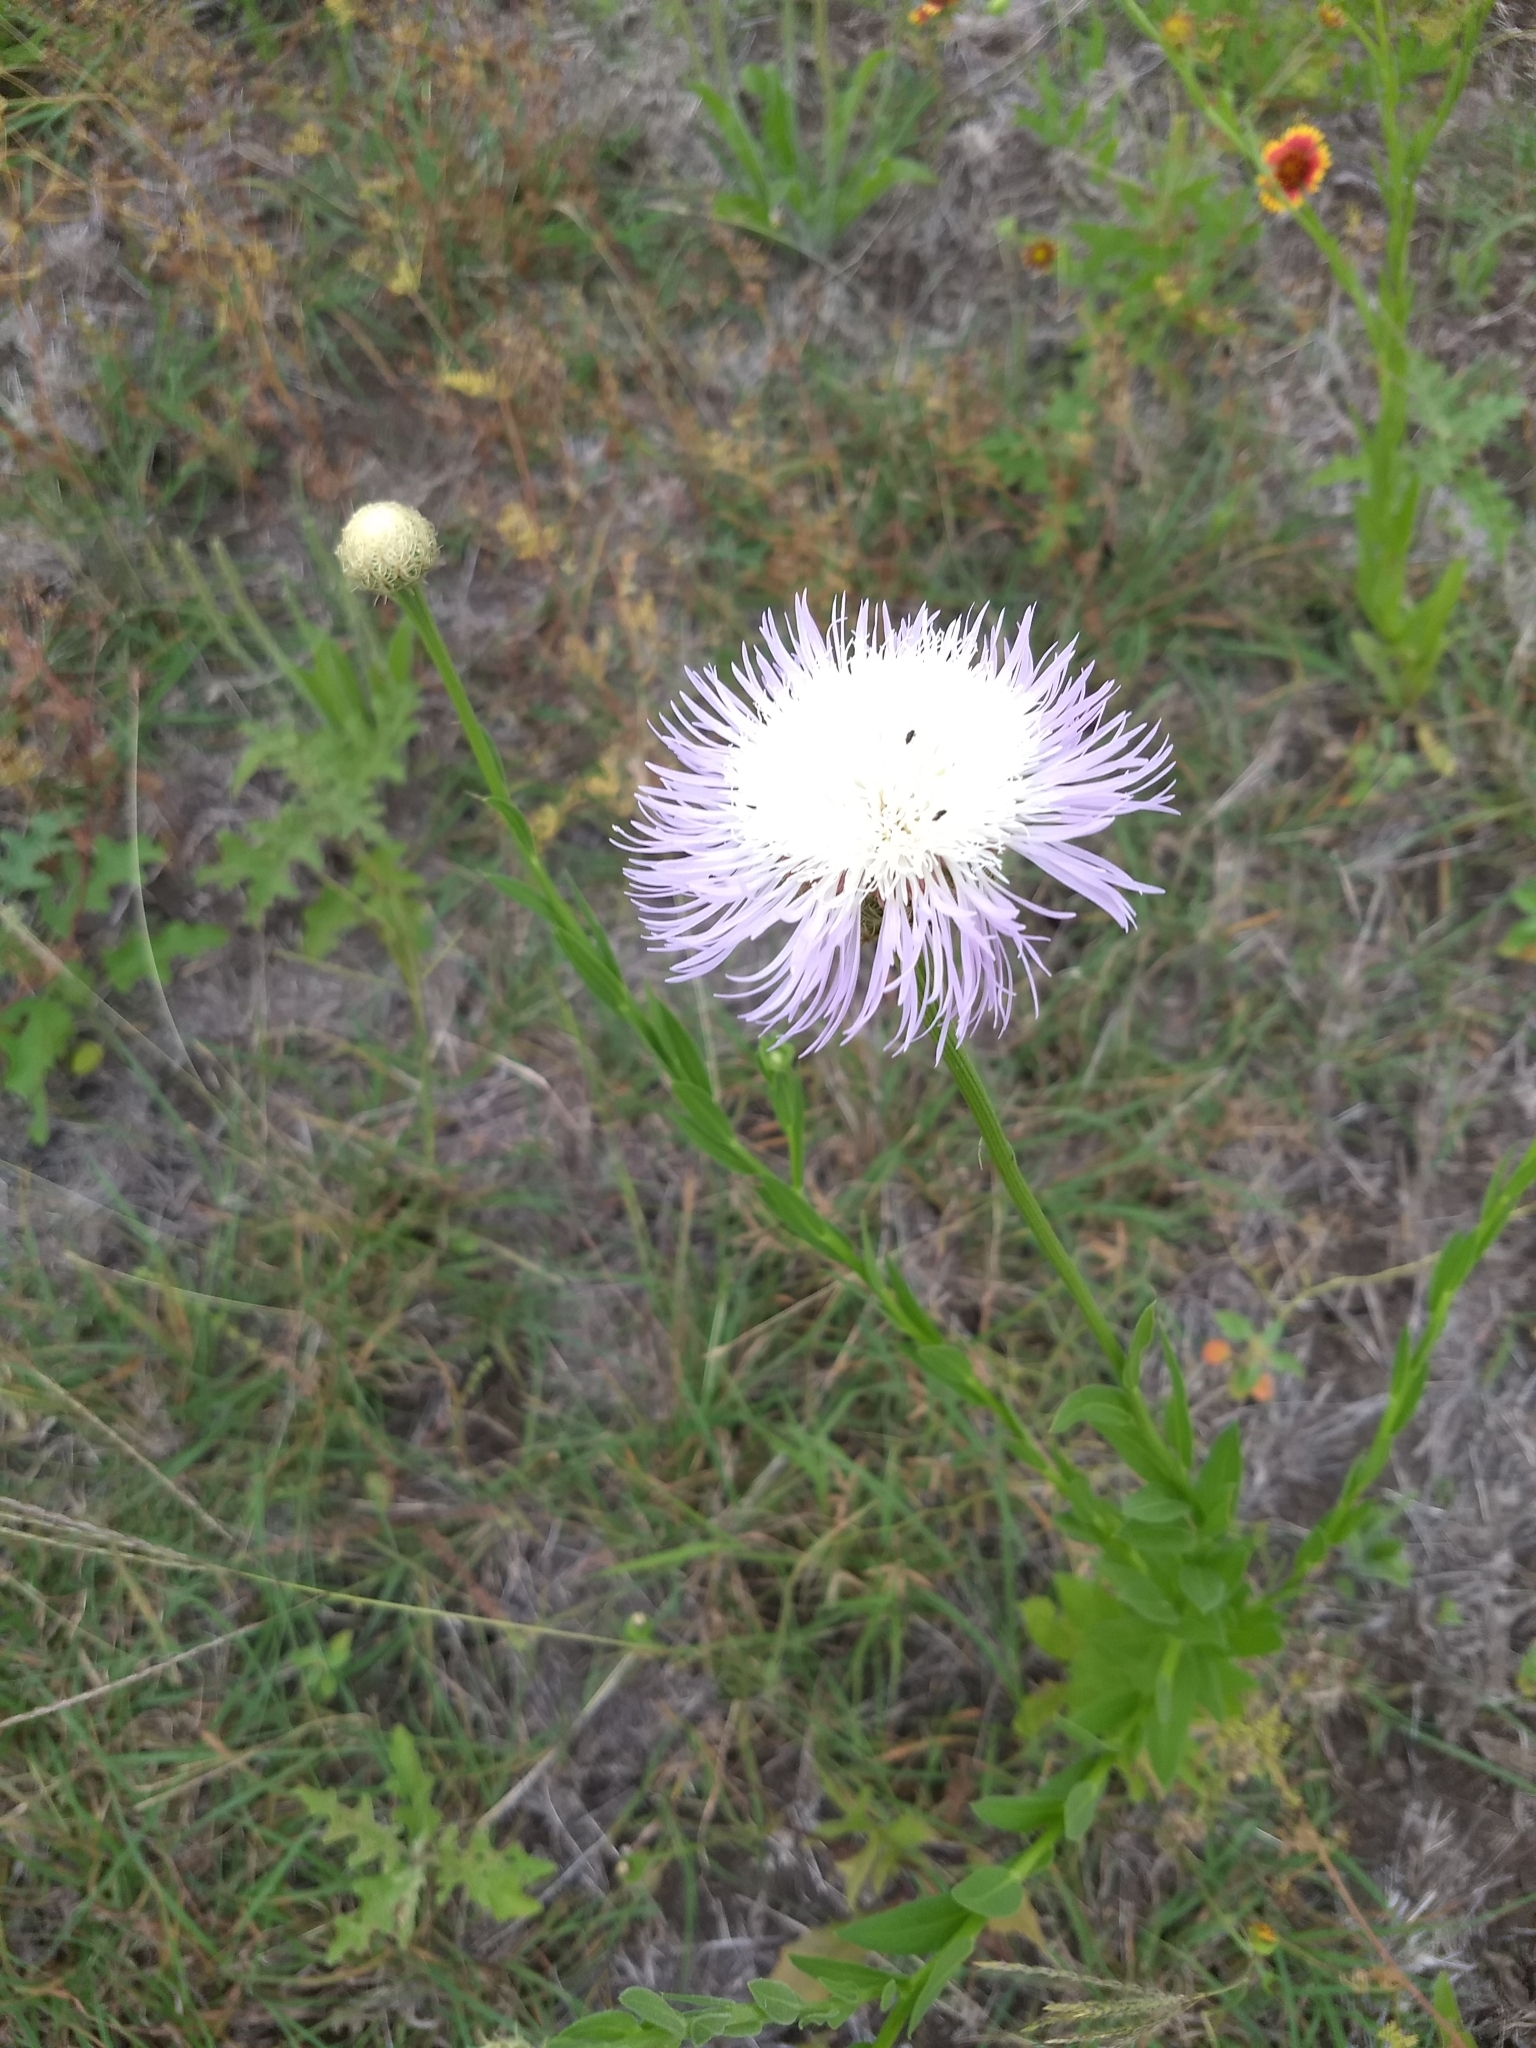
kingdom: Plantae
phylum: Tracheophyta
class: Magnoliopsida
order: Asterales
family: Asteraceae
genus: Plectocephalus
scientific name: Plectocephalus americanus
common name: American basket-flower
